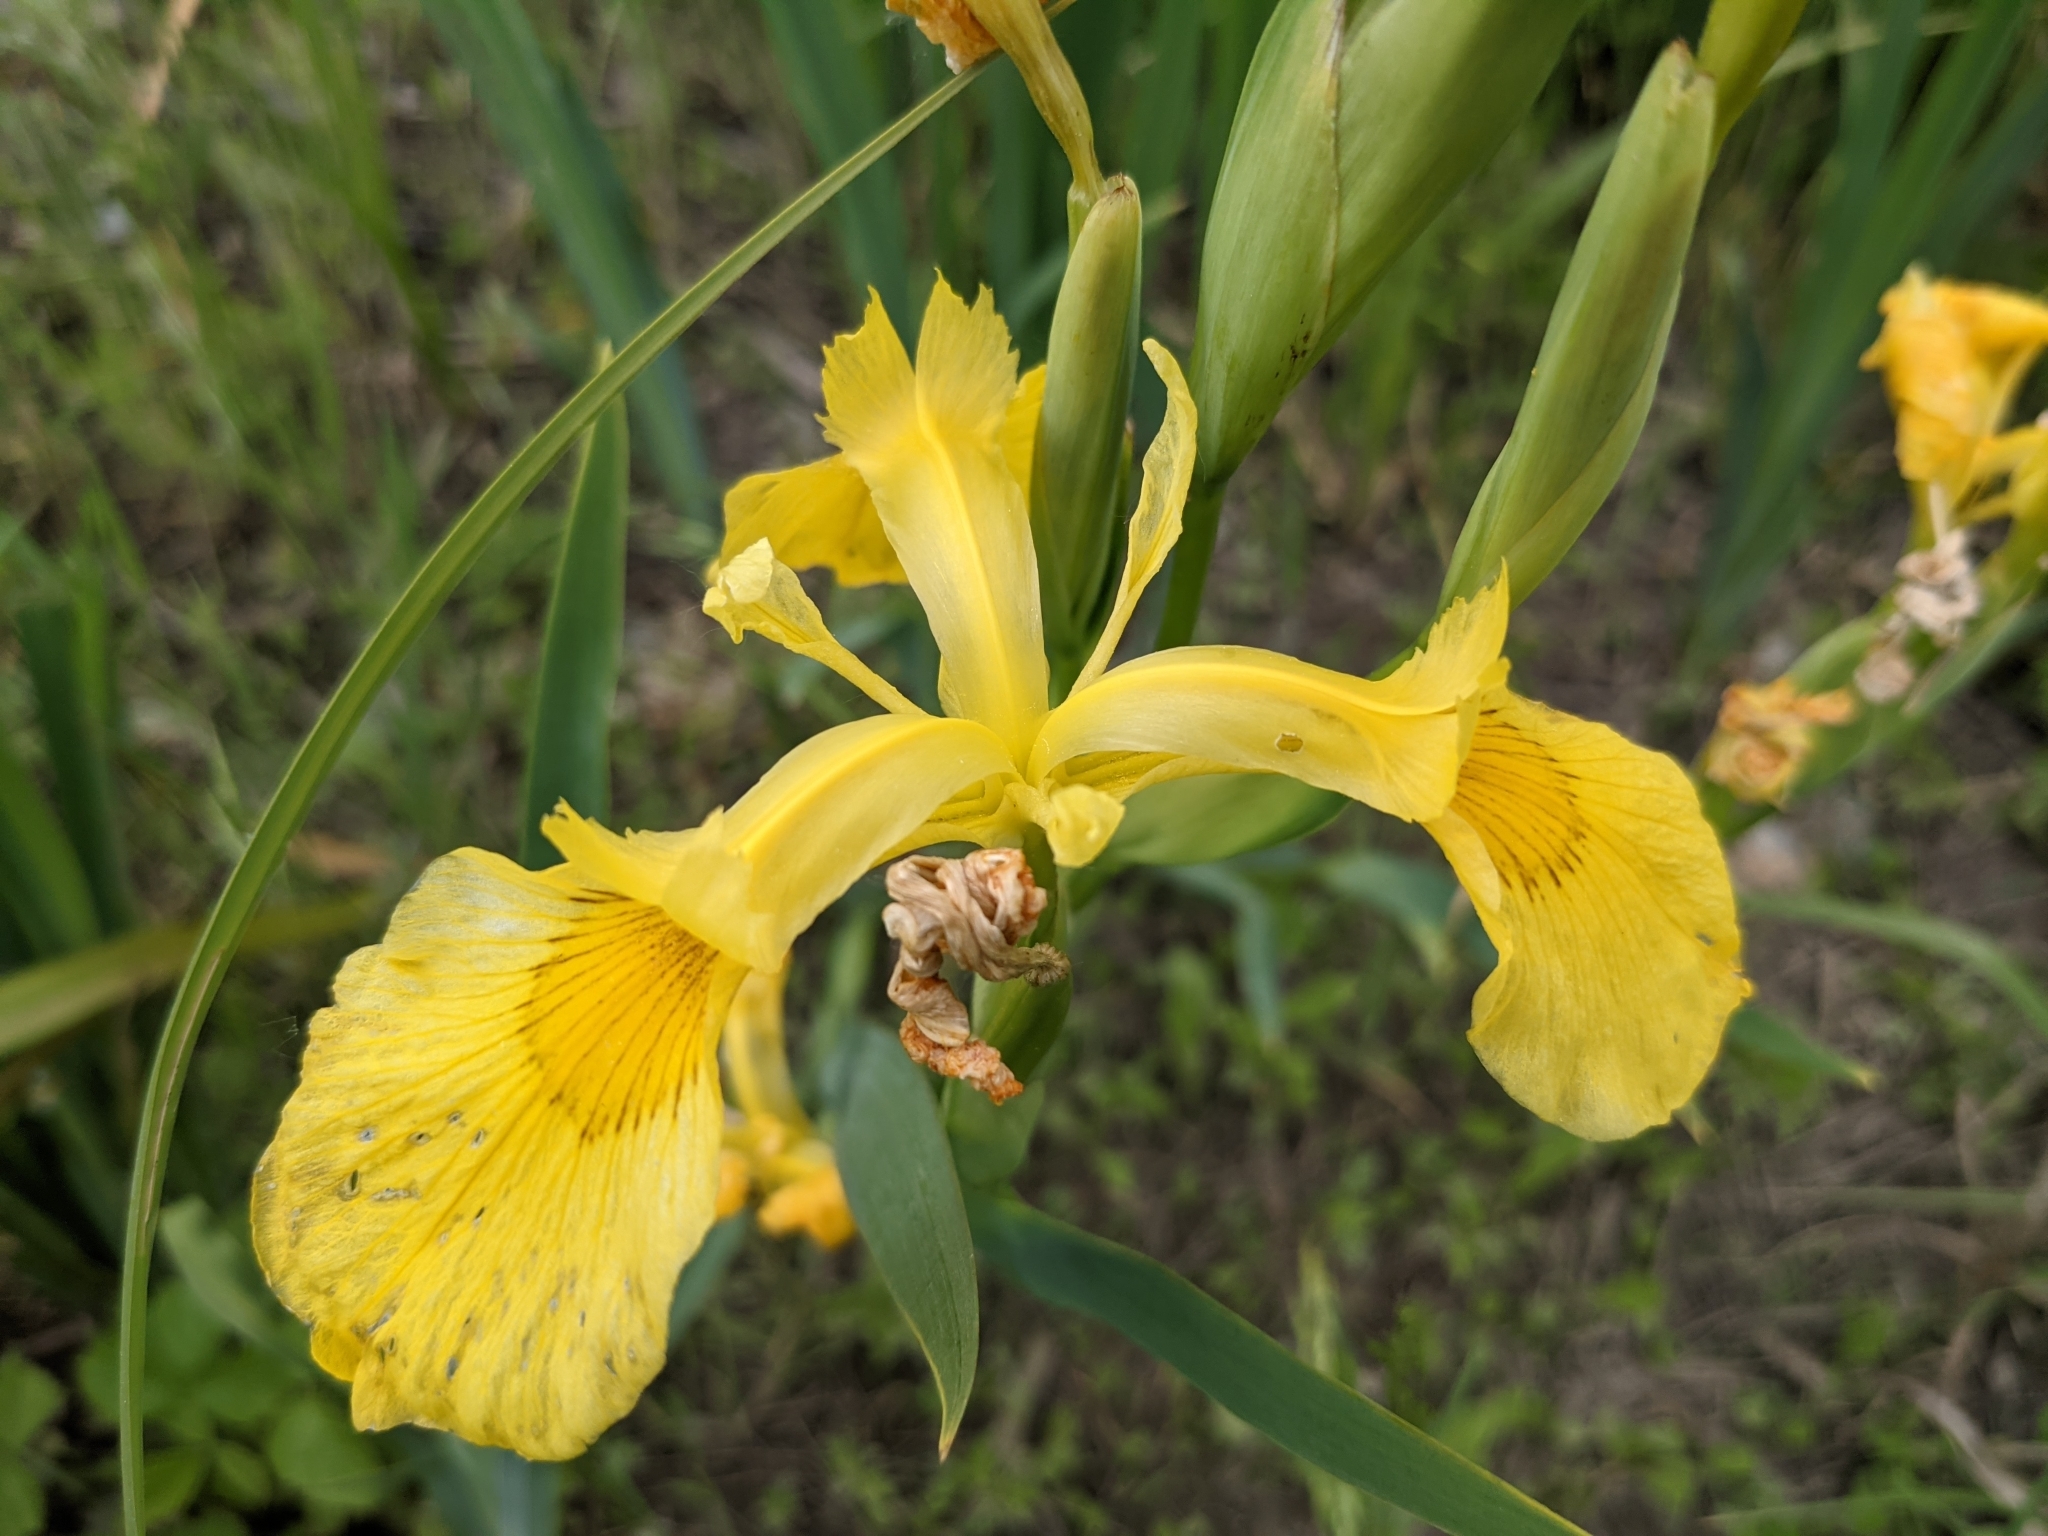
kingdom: Plantae
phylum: Tracheophyta
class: Liliopsida
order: Asparagales
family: Iridaceae
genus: Iris
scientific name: Iris pseudacorus
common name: Yellow flag
